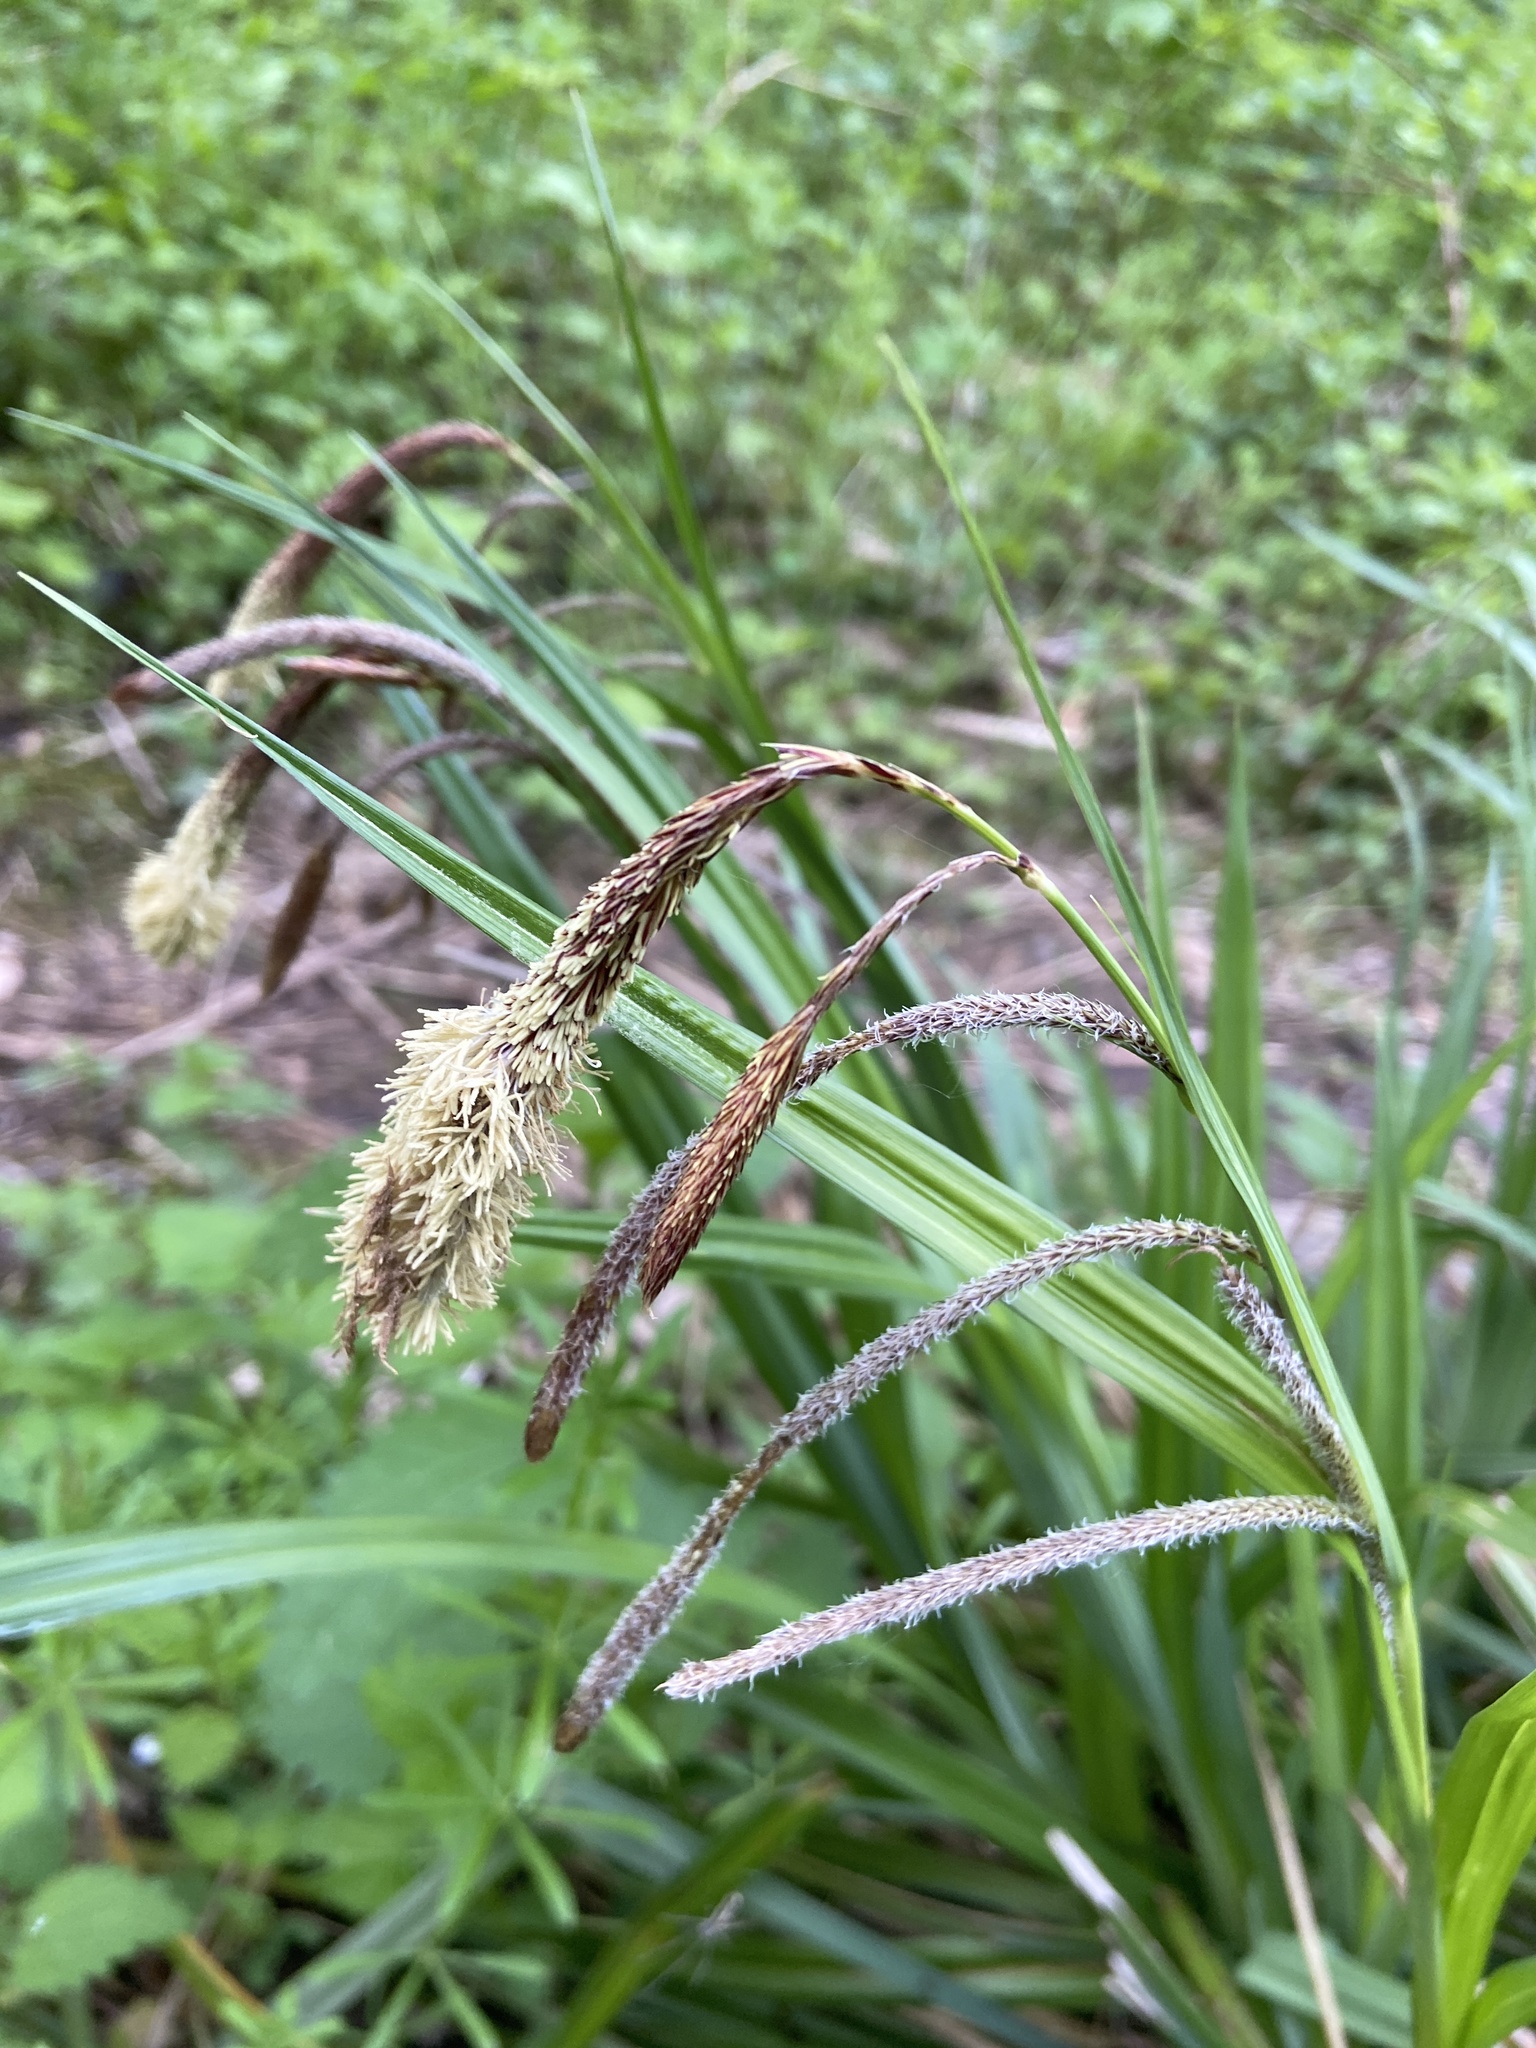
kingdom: Plantae
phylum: Tracheophyta
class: Liliopsida
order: Poales
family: Cyperaceae
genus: Carex
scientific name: Carex pendula
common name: Pendulous sedge
